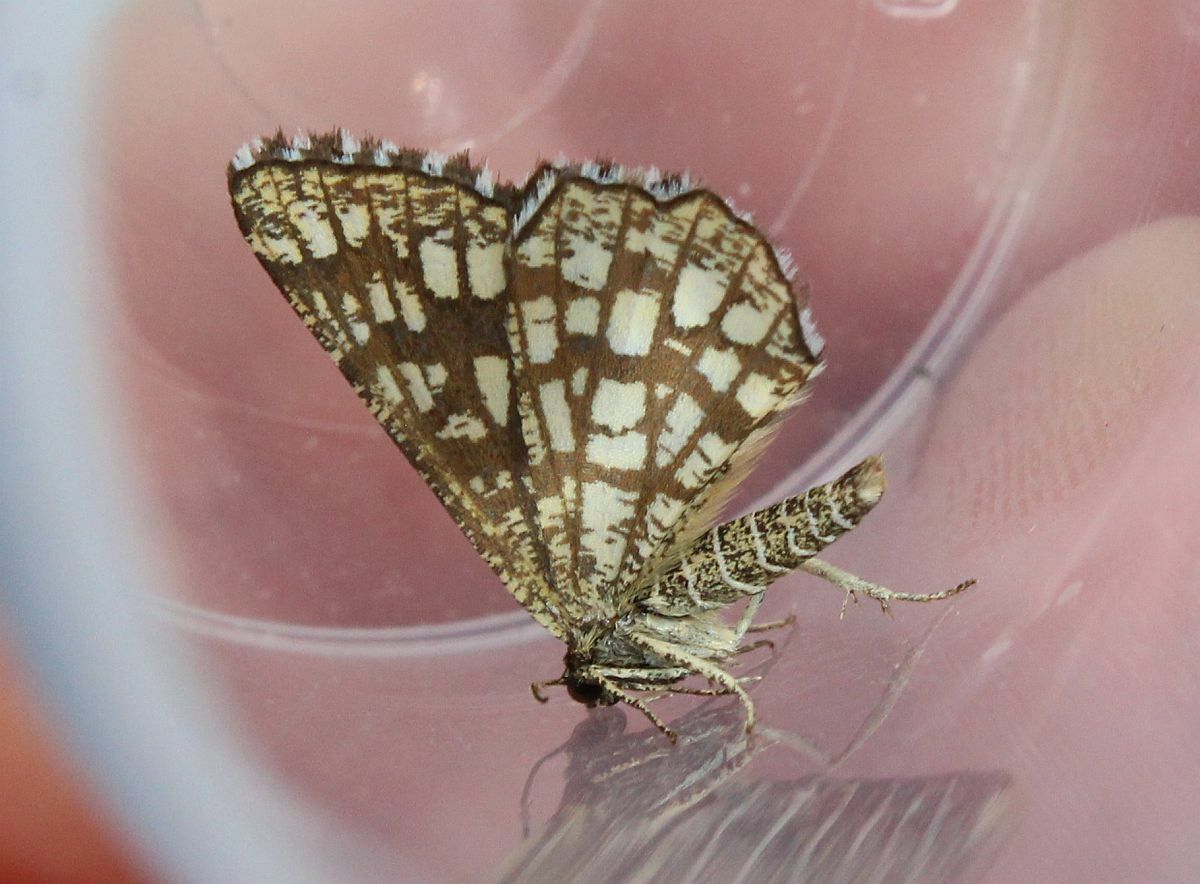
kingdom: Animalia
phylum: Arthropoda
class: Insecta
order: Lepidoptera
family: Geometridae
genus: Chiasmia
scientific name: Chiasmia clathrata
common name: Latticed heath
